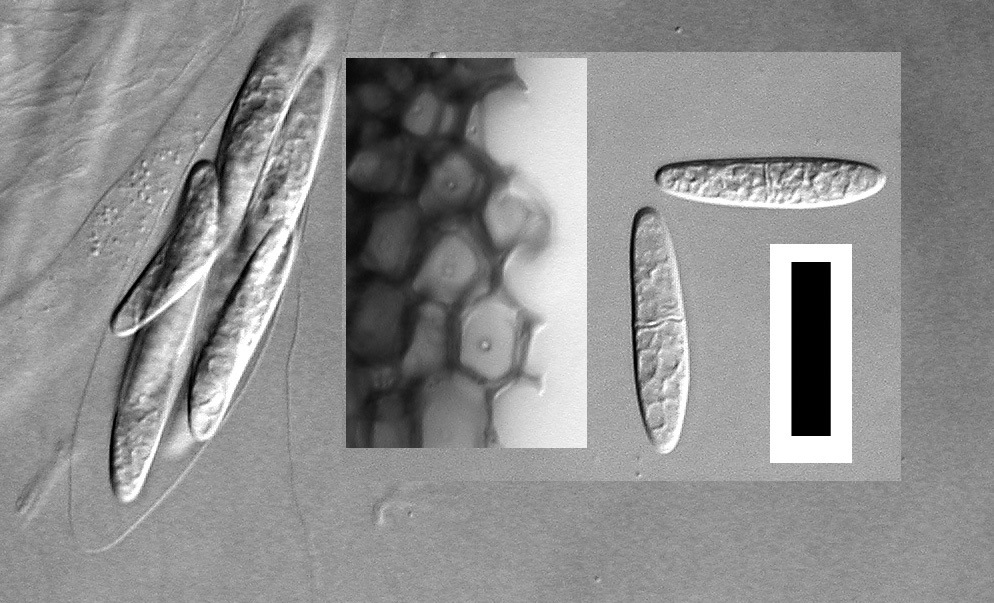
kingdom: Fungi
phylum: Ascomycota
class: Sordariomycetes
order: Coronophorales
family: Bertiaceae
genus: Bertia
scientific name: Bertia moriformis
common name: Wood mulberry
